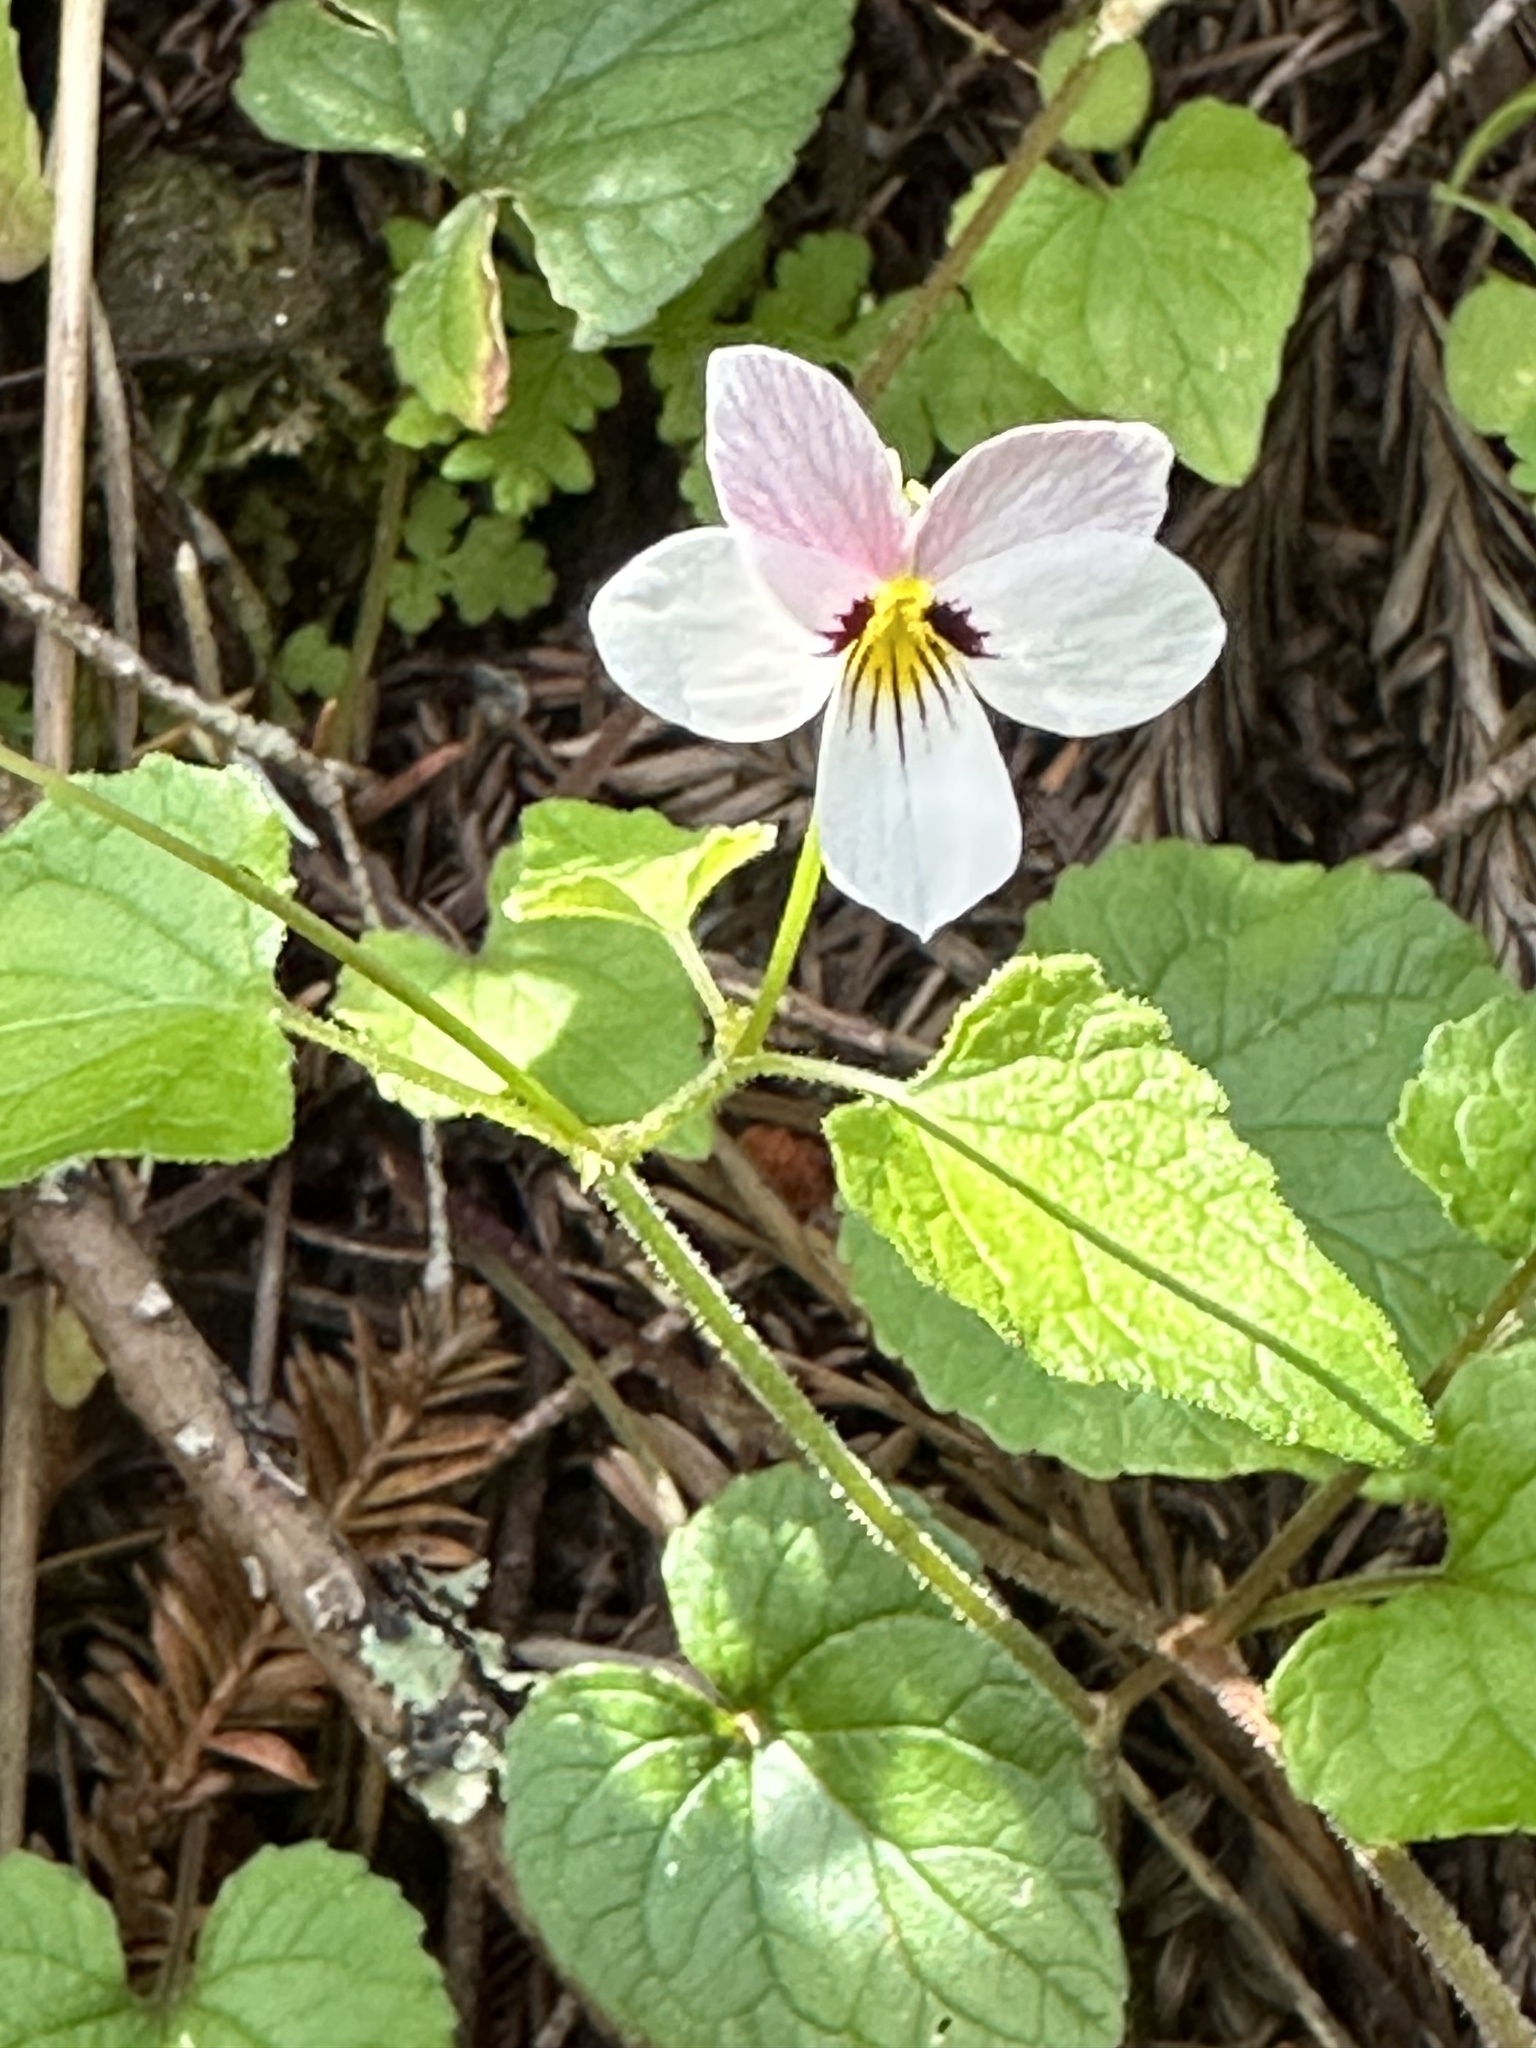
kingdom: Plantae
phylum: Tracheophyta
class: Magnoliopsida
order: Malpighiales
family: Violaceae
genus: Viola
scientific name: Viola ocellata
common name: Western heart's ease
